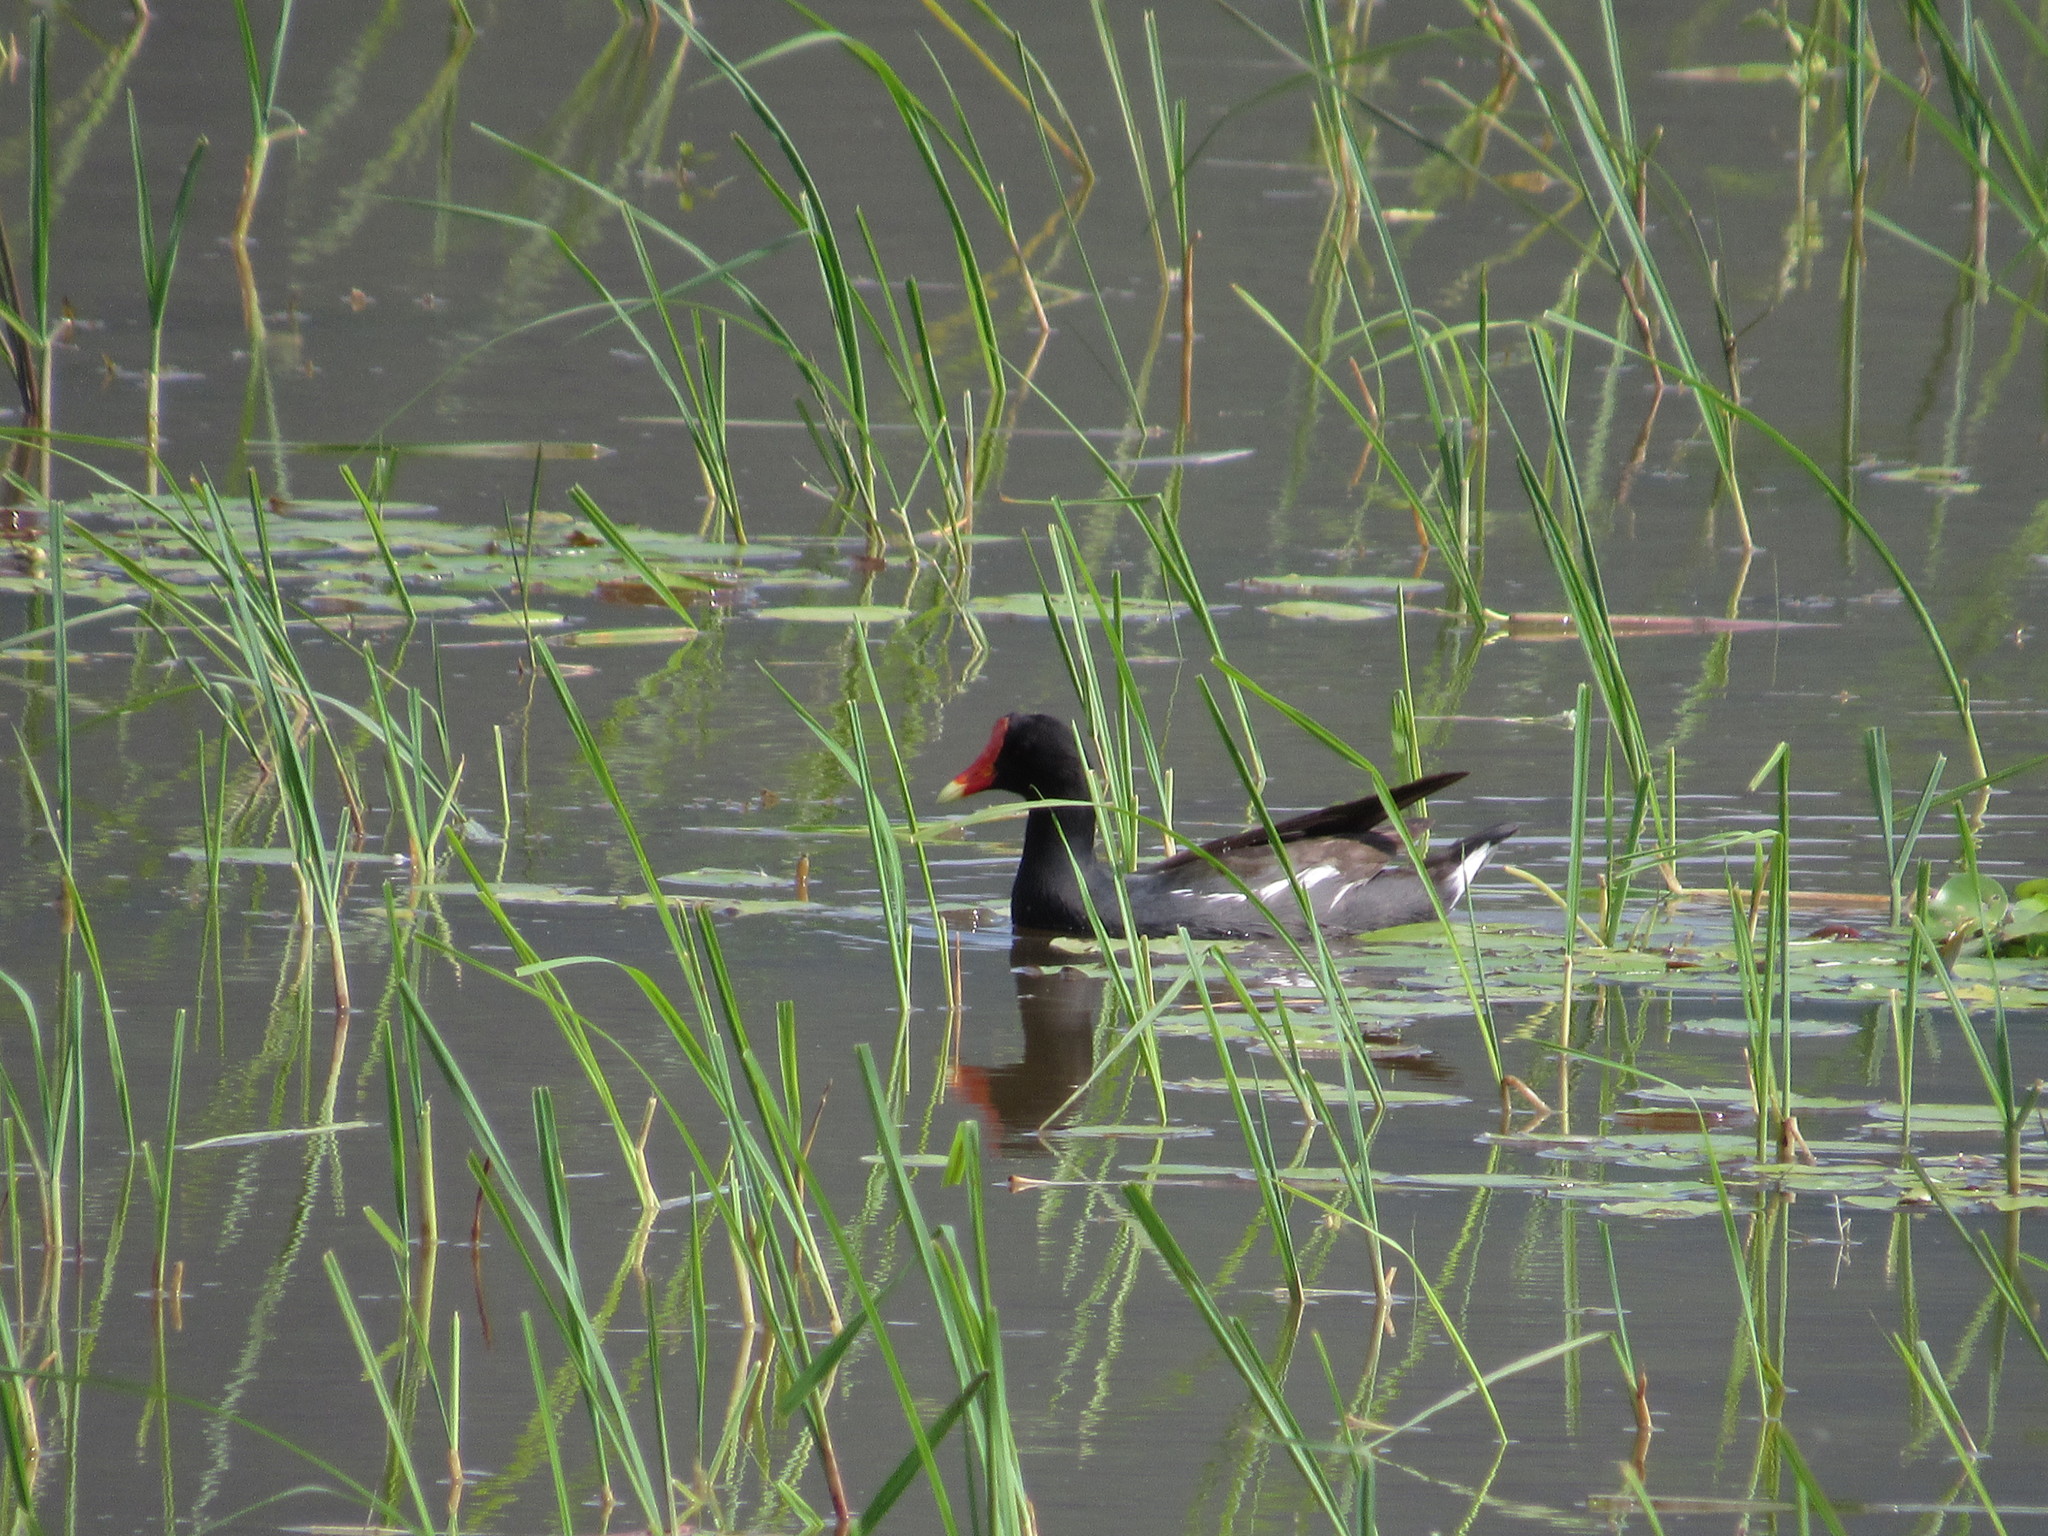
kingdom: Animalia
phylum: Chordata
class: Aves
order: Gruiformes
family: Rallidae
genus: Gallinula
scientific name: Gallinula chloropus
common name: Common moorhen
